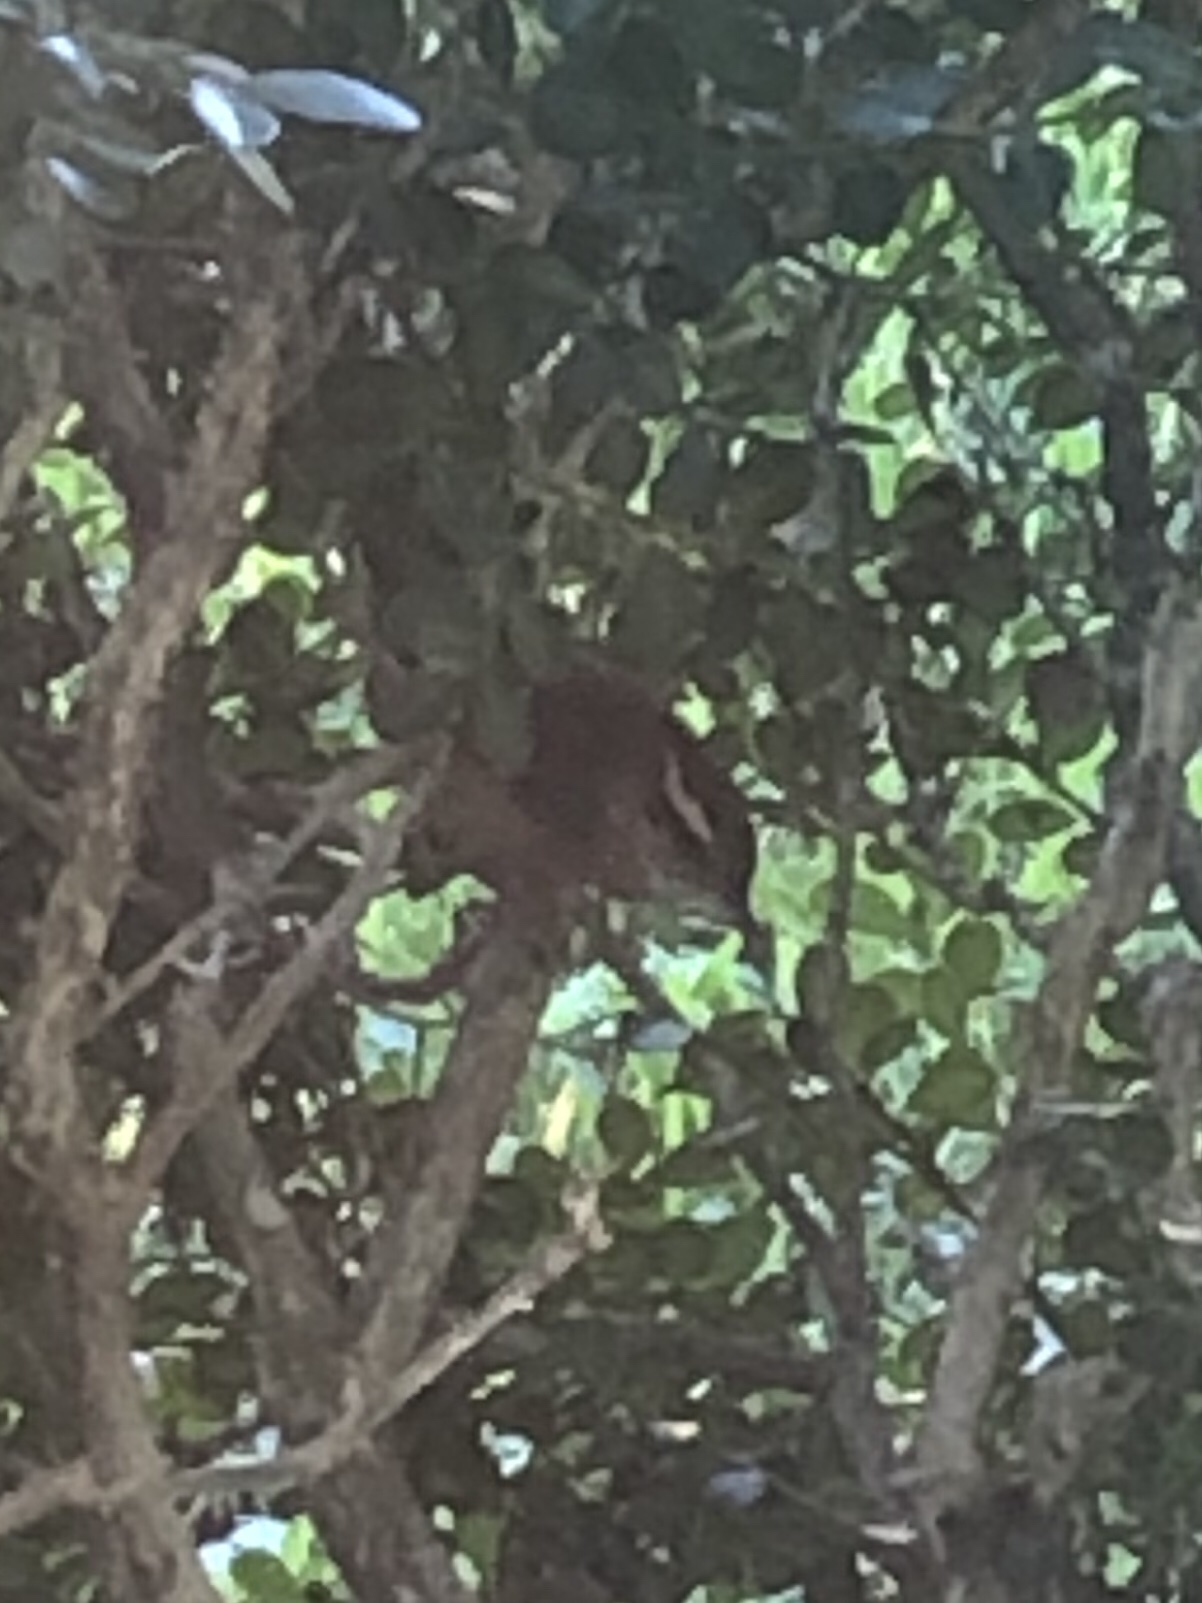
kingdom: Animalia
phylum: Chordata
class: Aves
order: Passeriformes
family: Troglodytidae
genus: Thryothorus
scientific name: Thryothorus ludovicianus
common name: Carolina wren
